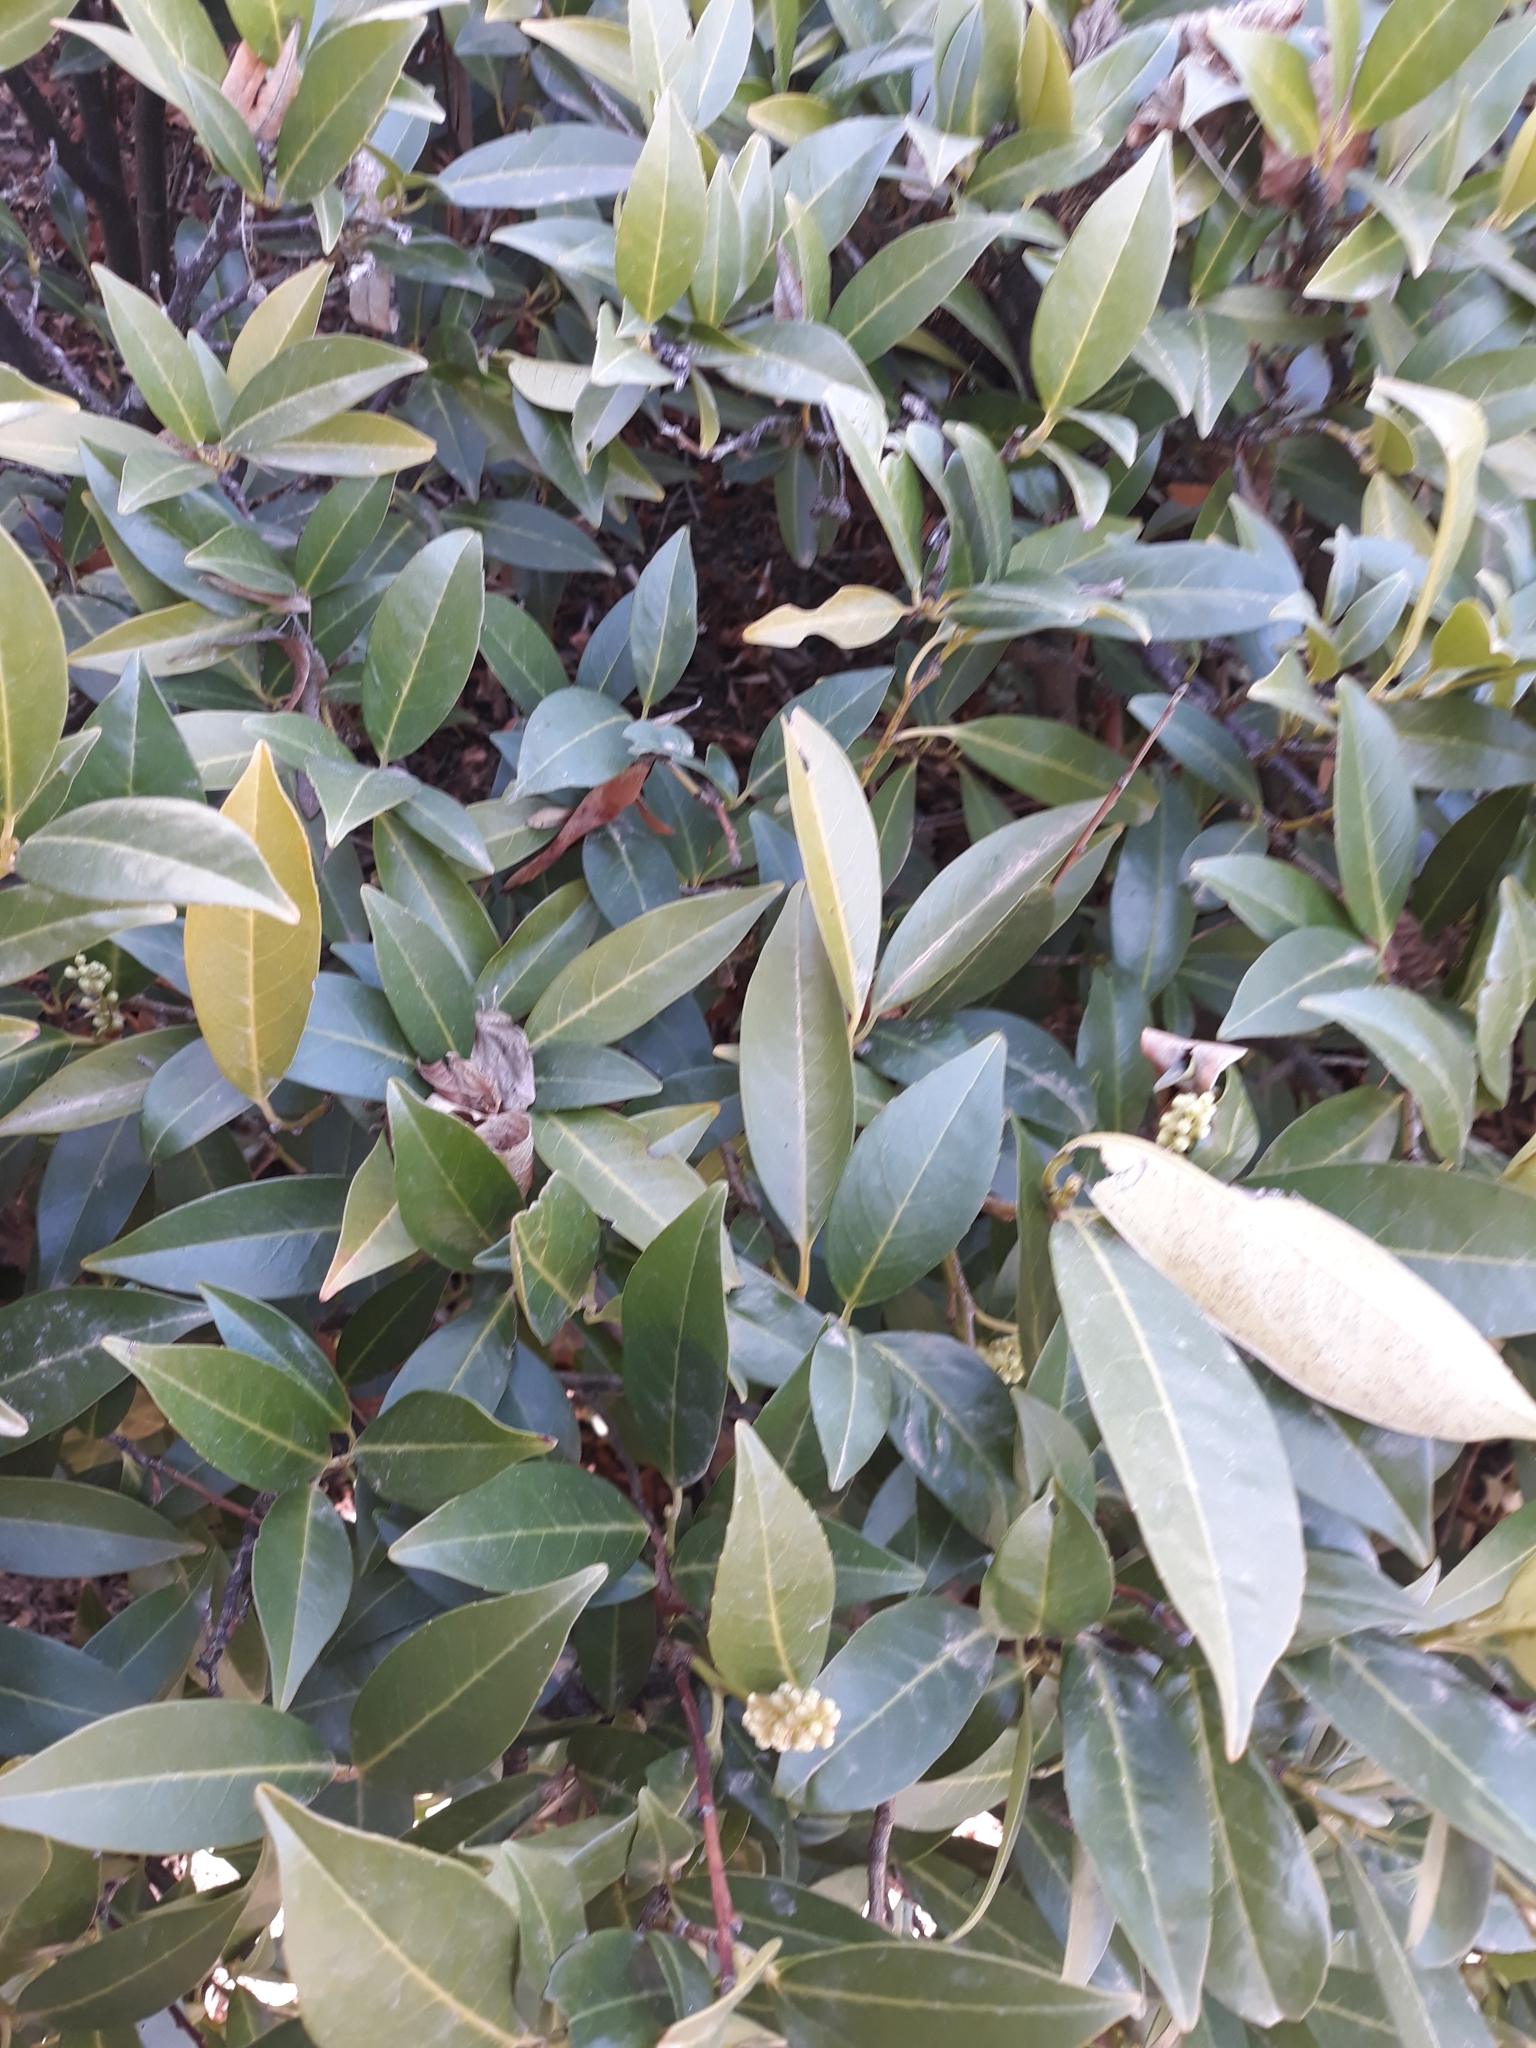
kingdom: Plantae
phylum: Tracheophyta
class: Magnoliopsida
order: Rosales
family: Rosaceae
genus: Prunus
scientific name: Prunus laurocerasus
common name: Cherry laurel
